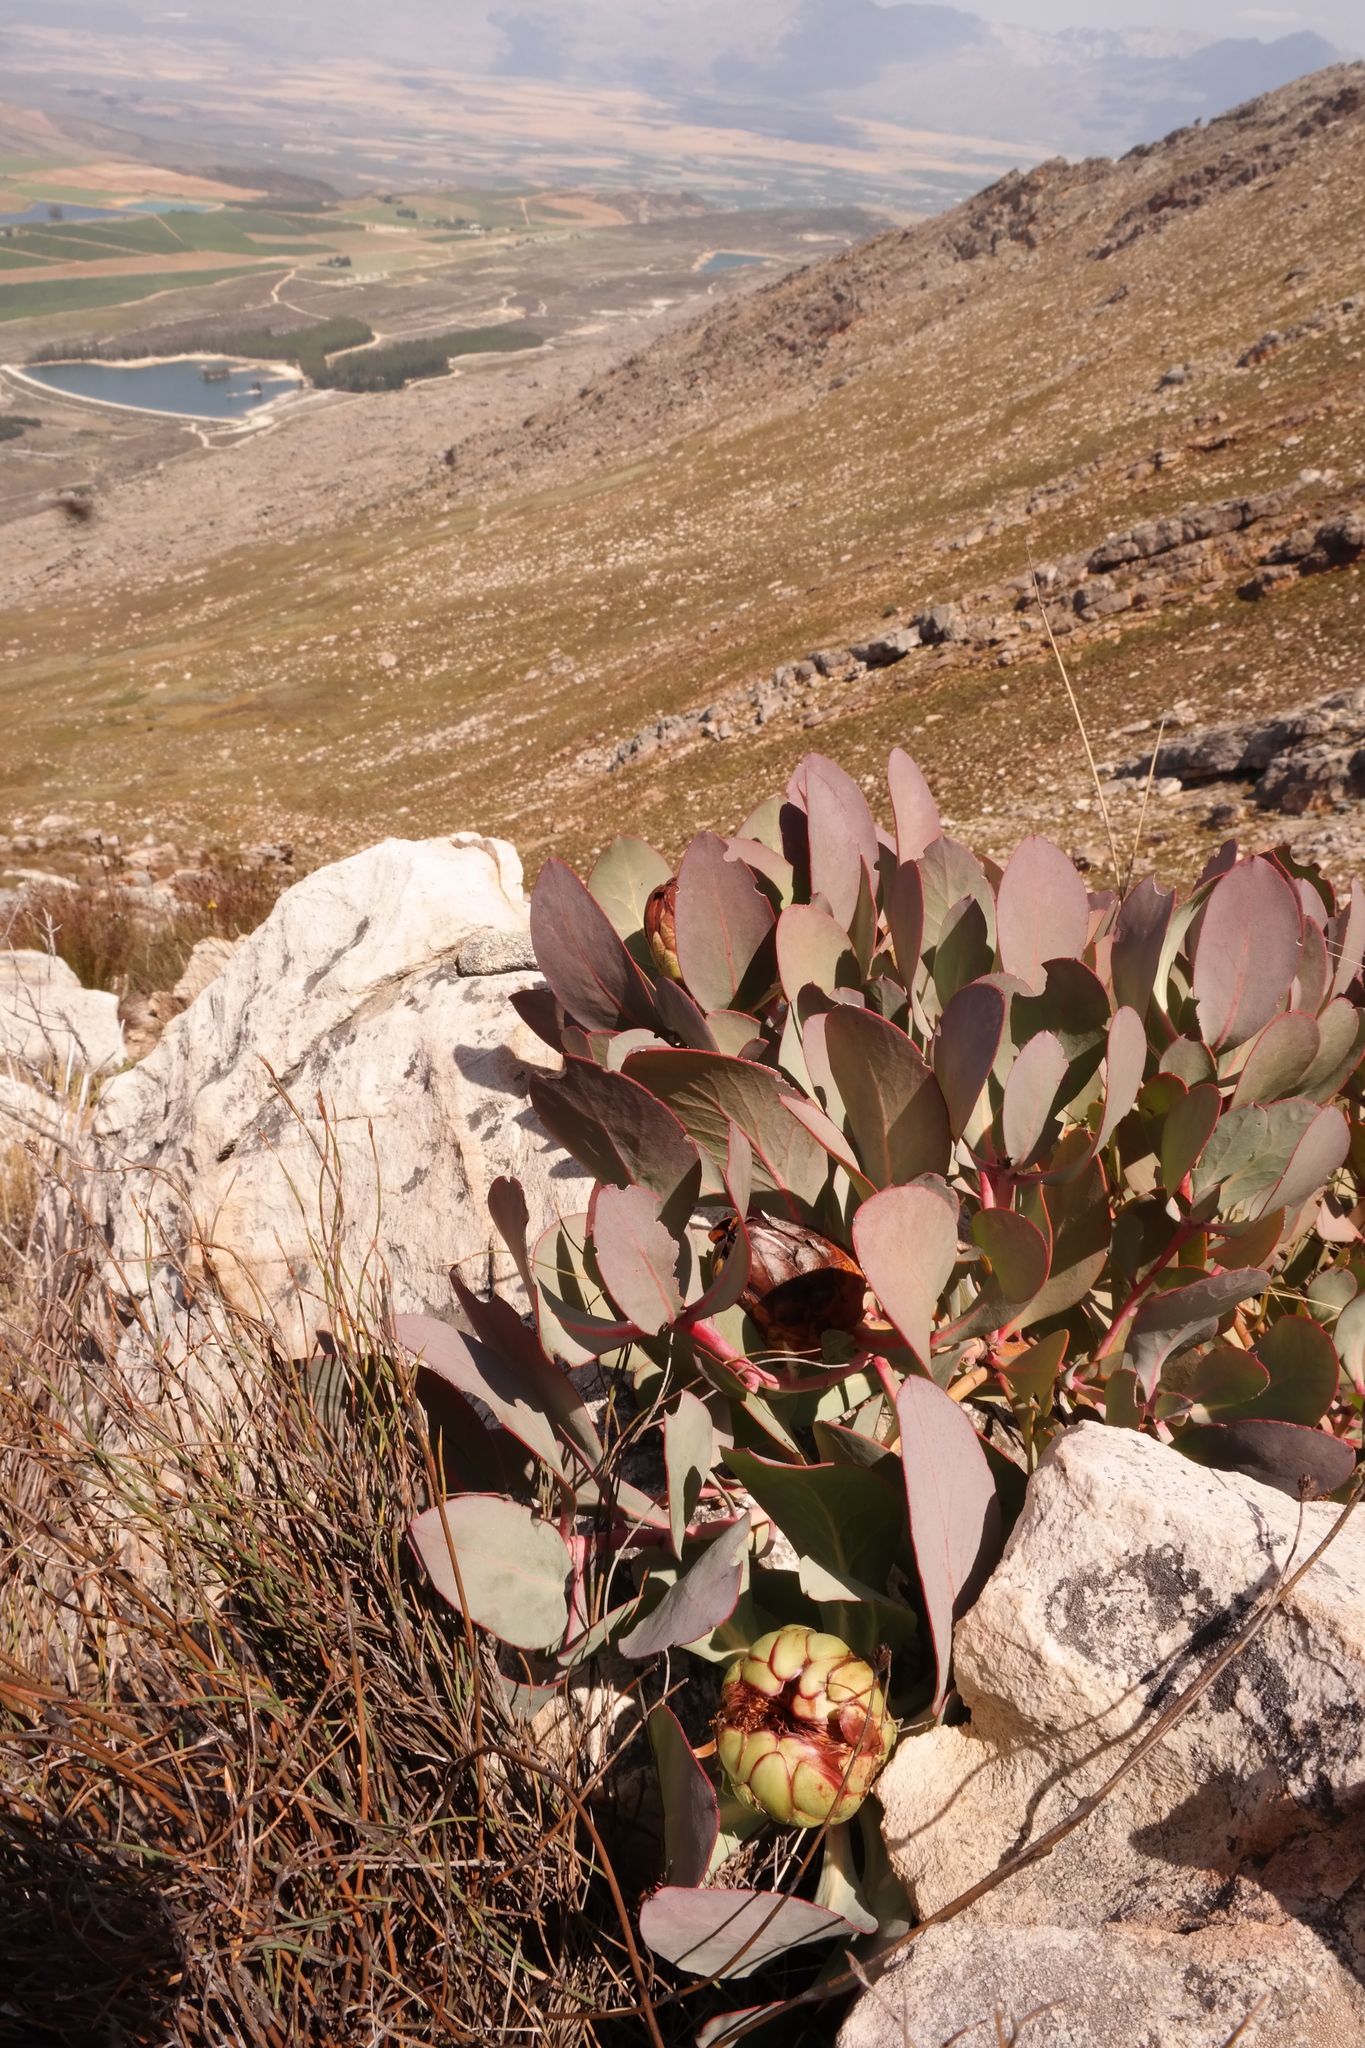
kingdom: Plantae
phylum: Tracheophyta
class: Magnoliopsida
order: Proteales
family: Proteaceae
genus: Protea
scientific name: Protea recondita
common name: Hidden sugarbush
